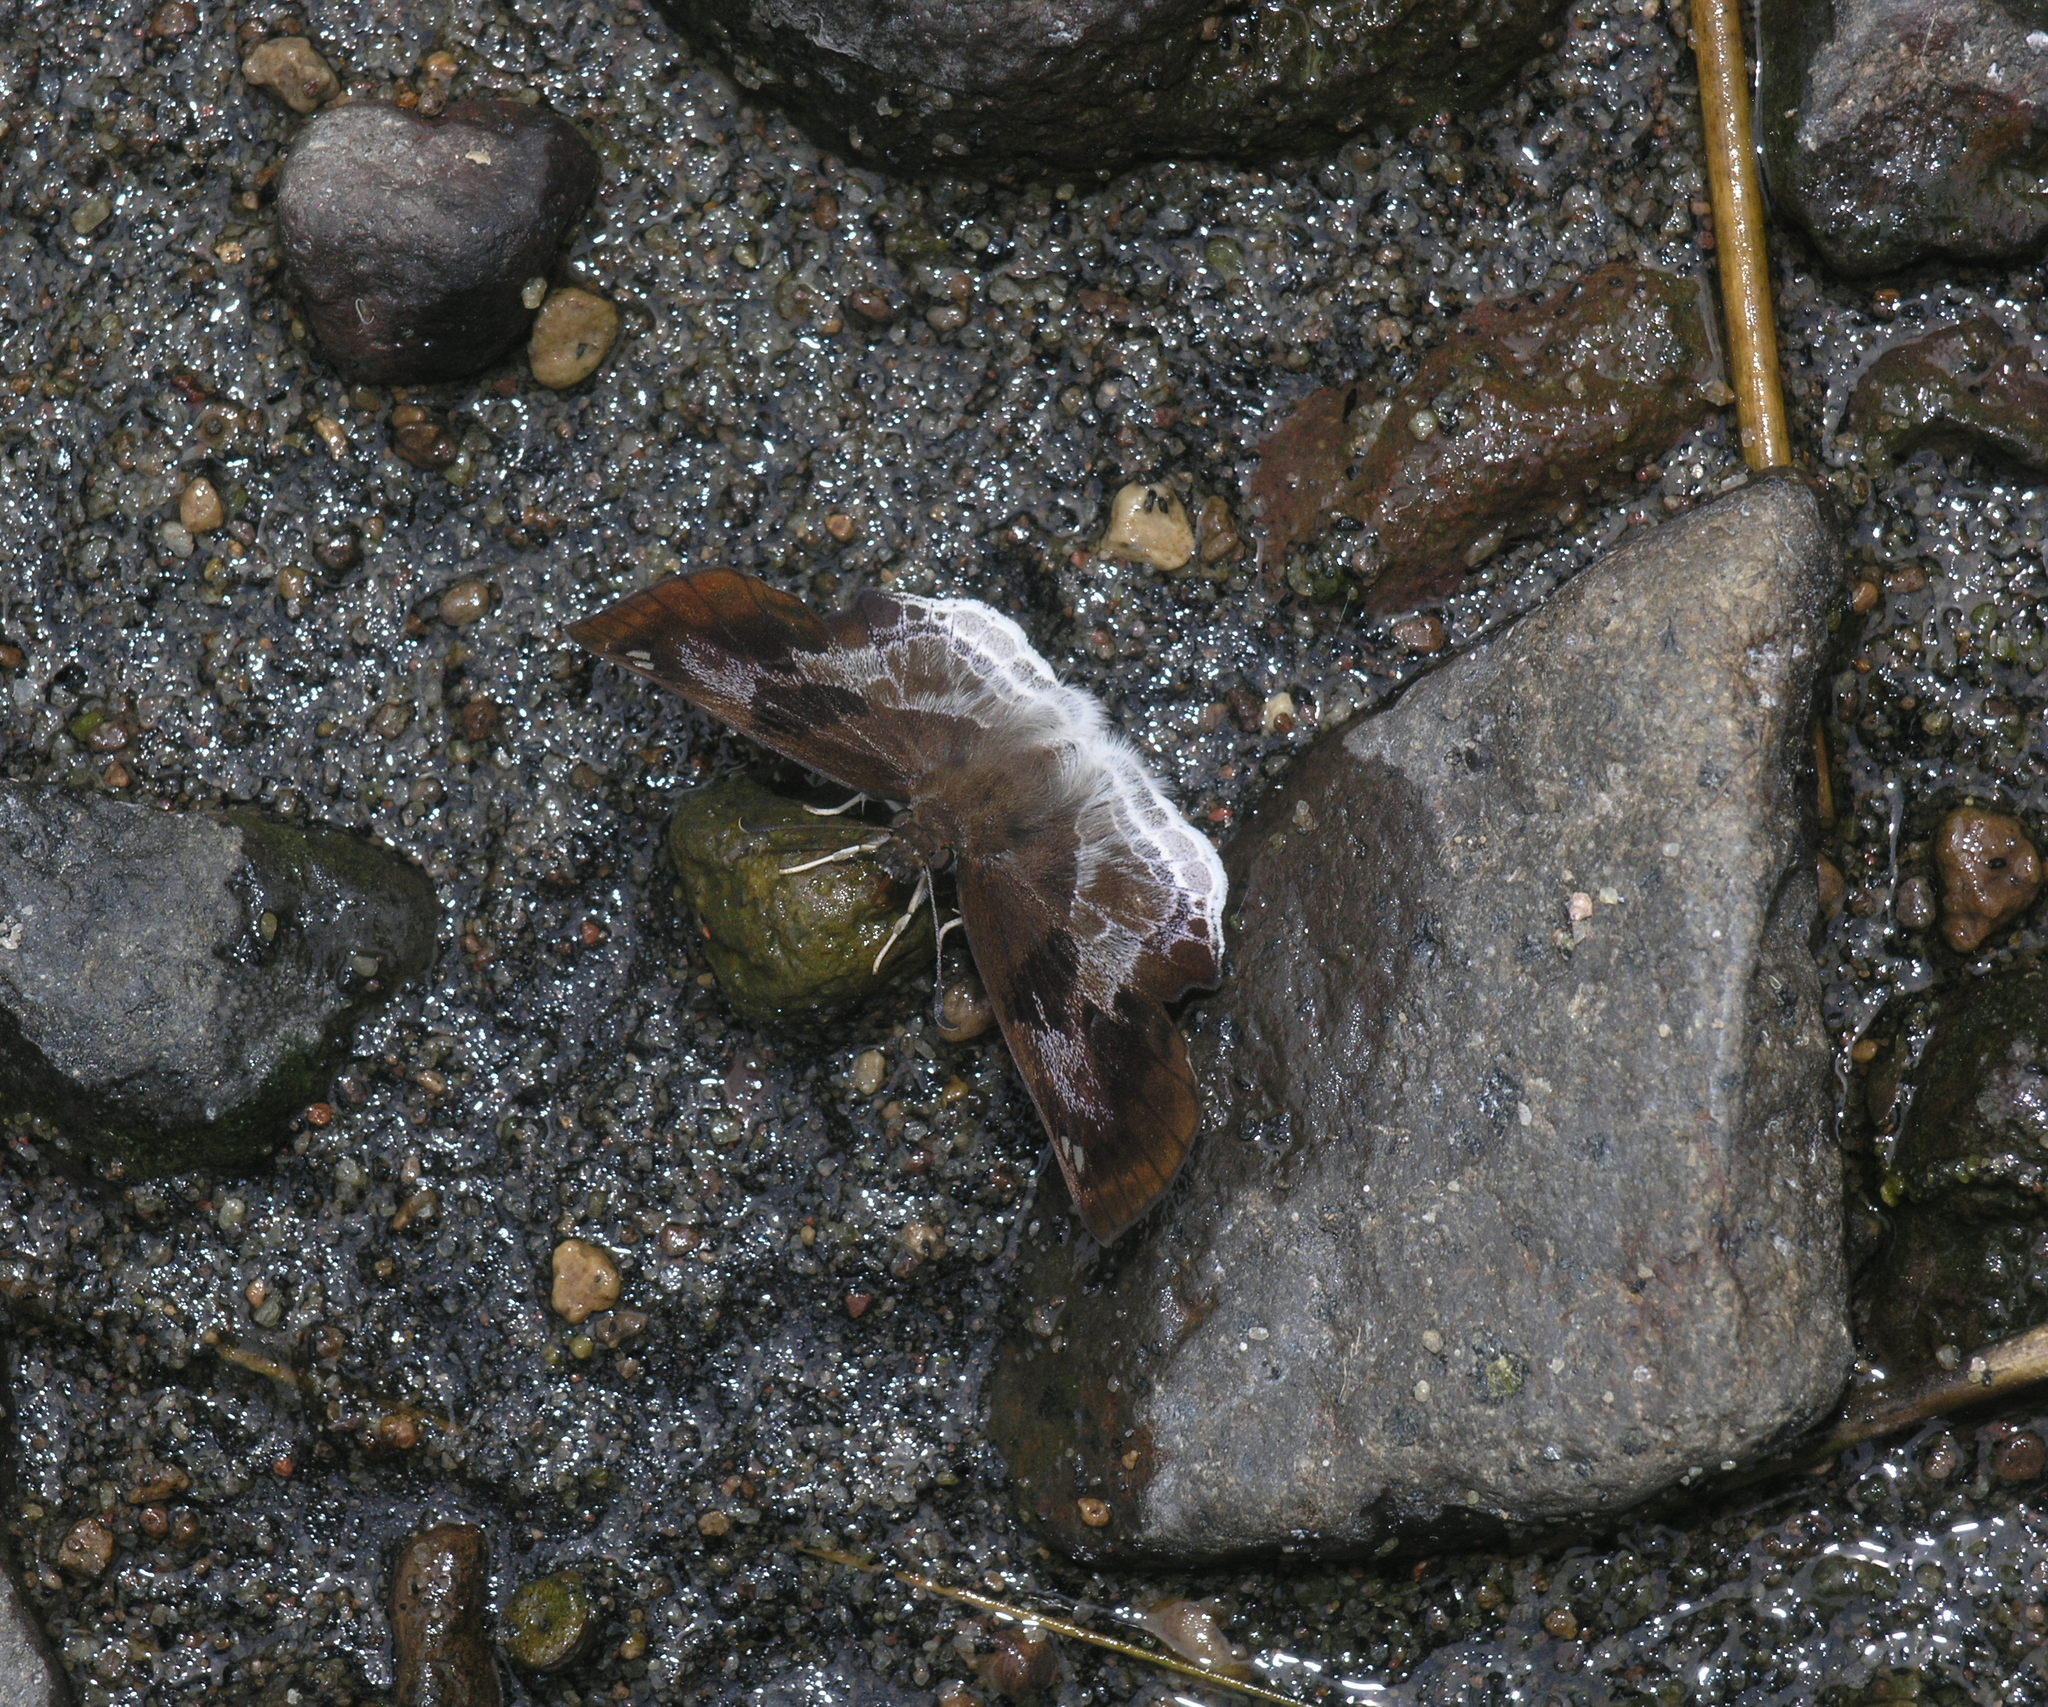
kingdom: Animalia
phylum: Arthropoda
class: Insecta
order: Lepidoptera
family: Hesperiidae
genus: Odontoptilum
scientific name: Odontoptilum angulata
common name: Chestnut banded angle
